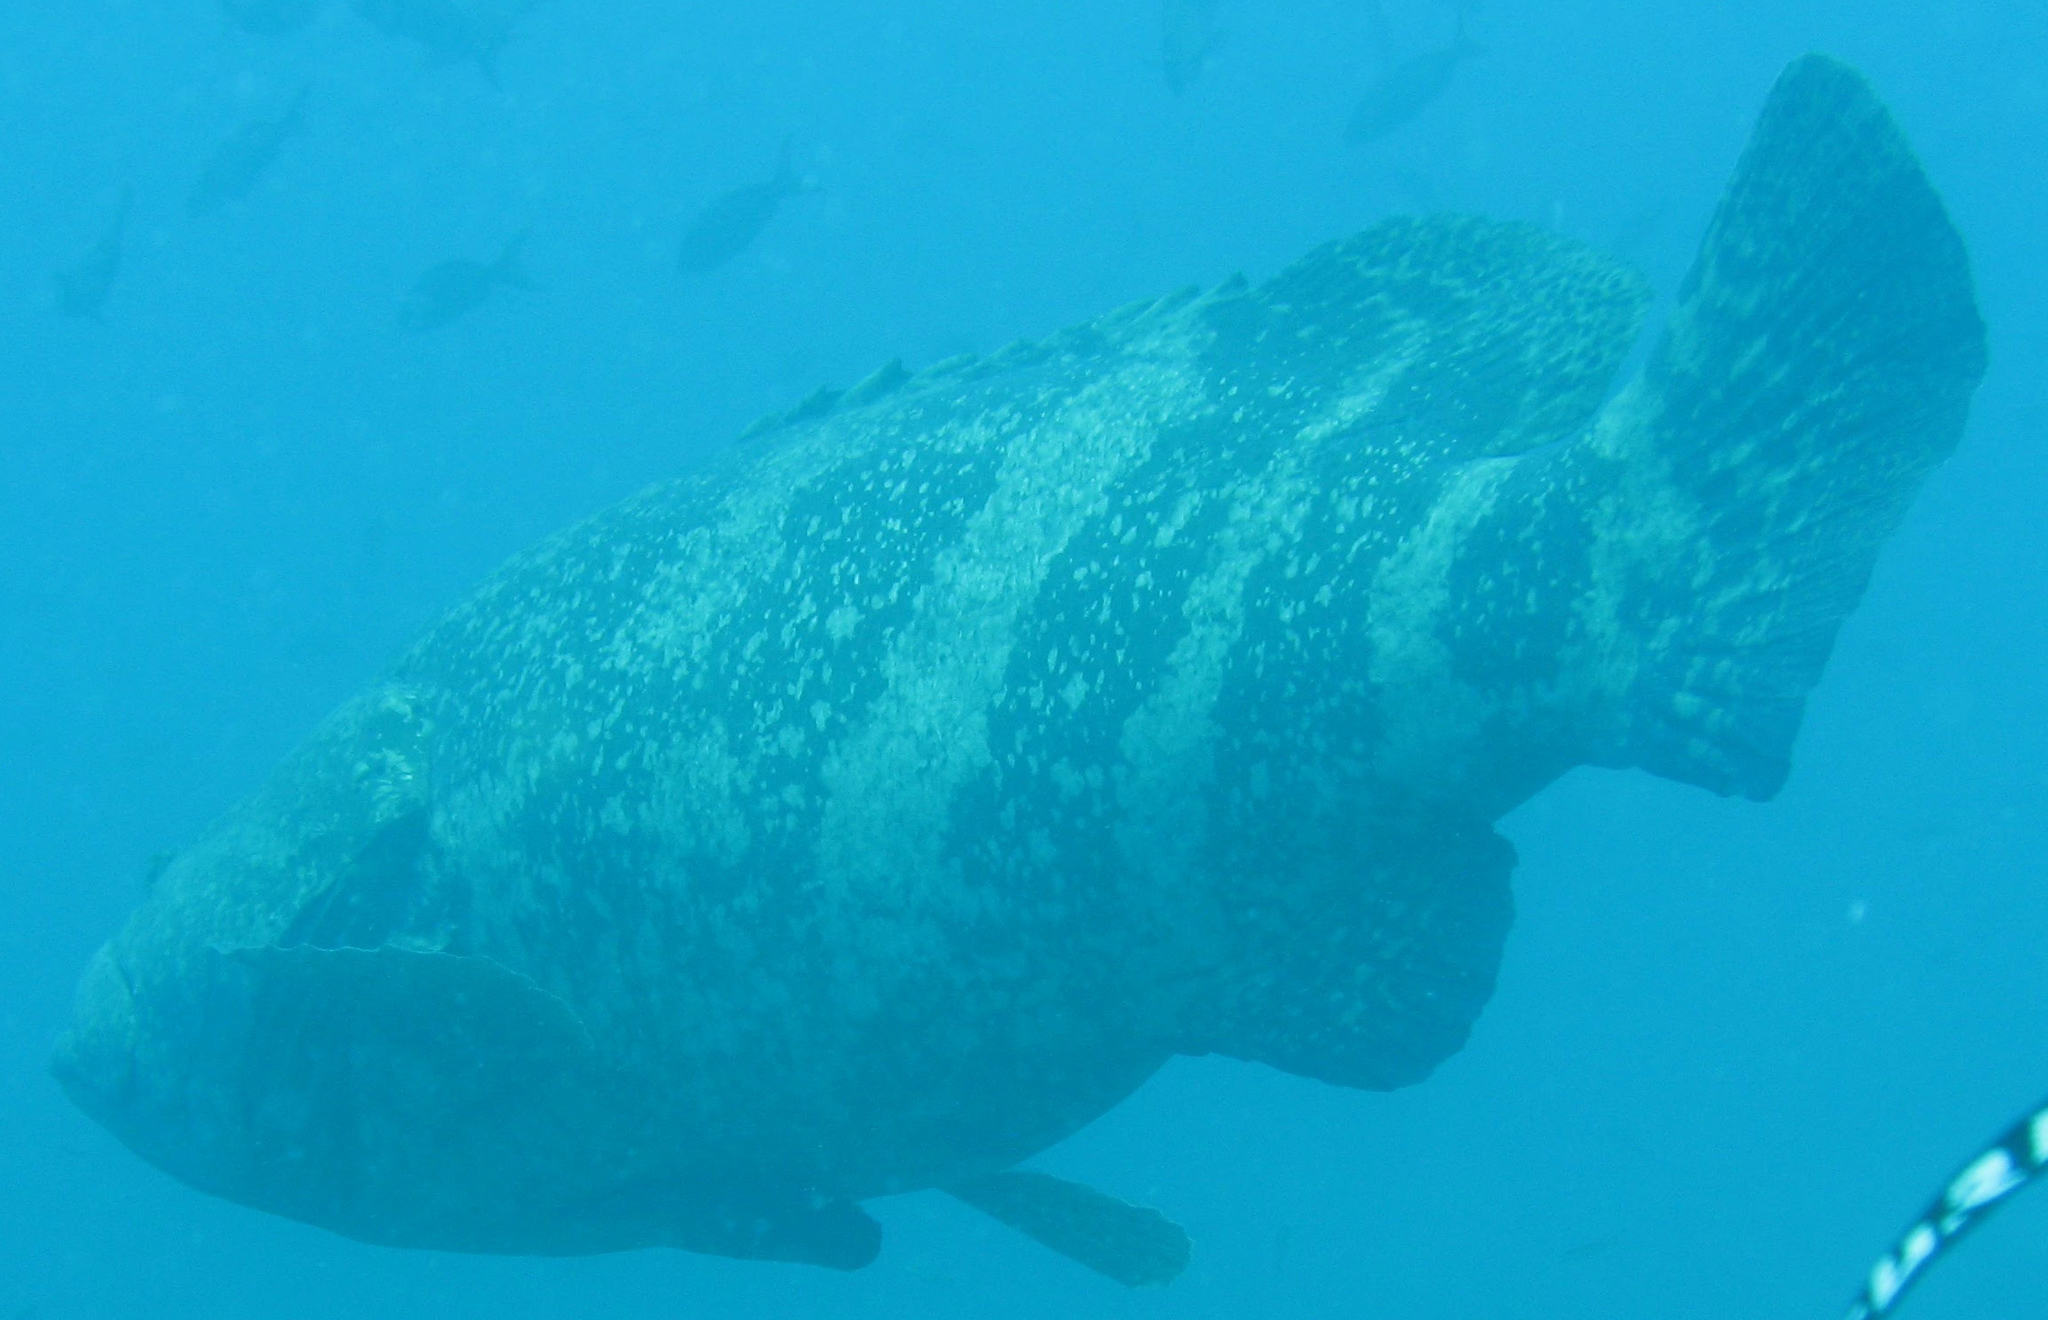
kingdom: Animalia
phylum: Chordata
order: Perciformes
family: Serranidae
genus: Epinephelus
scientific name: Epinephelus quinquefasciatus
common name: Pacific goliath grouper
